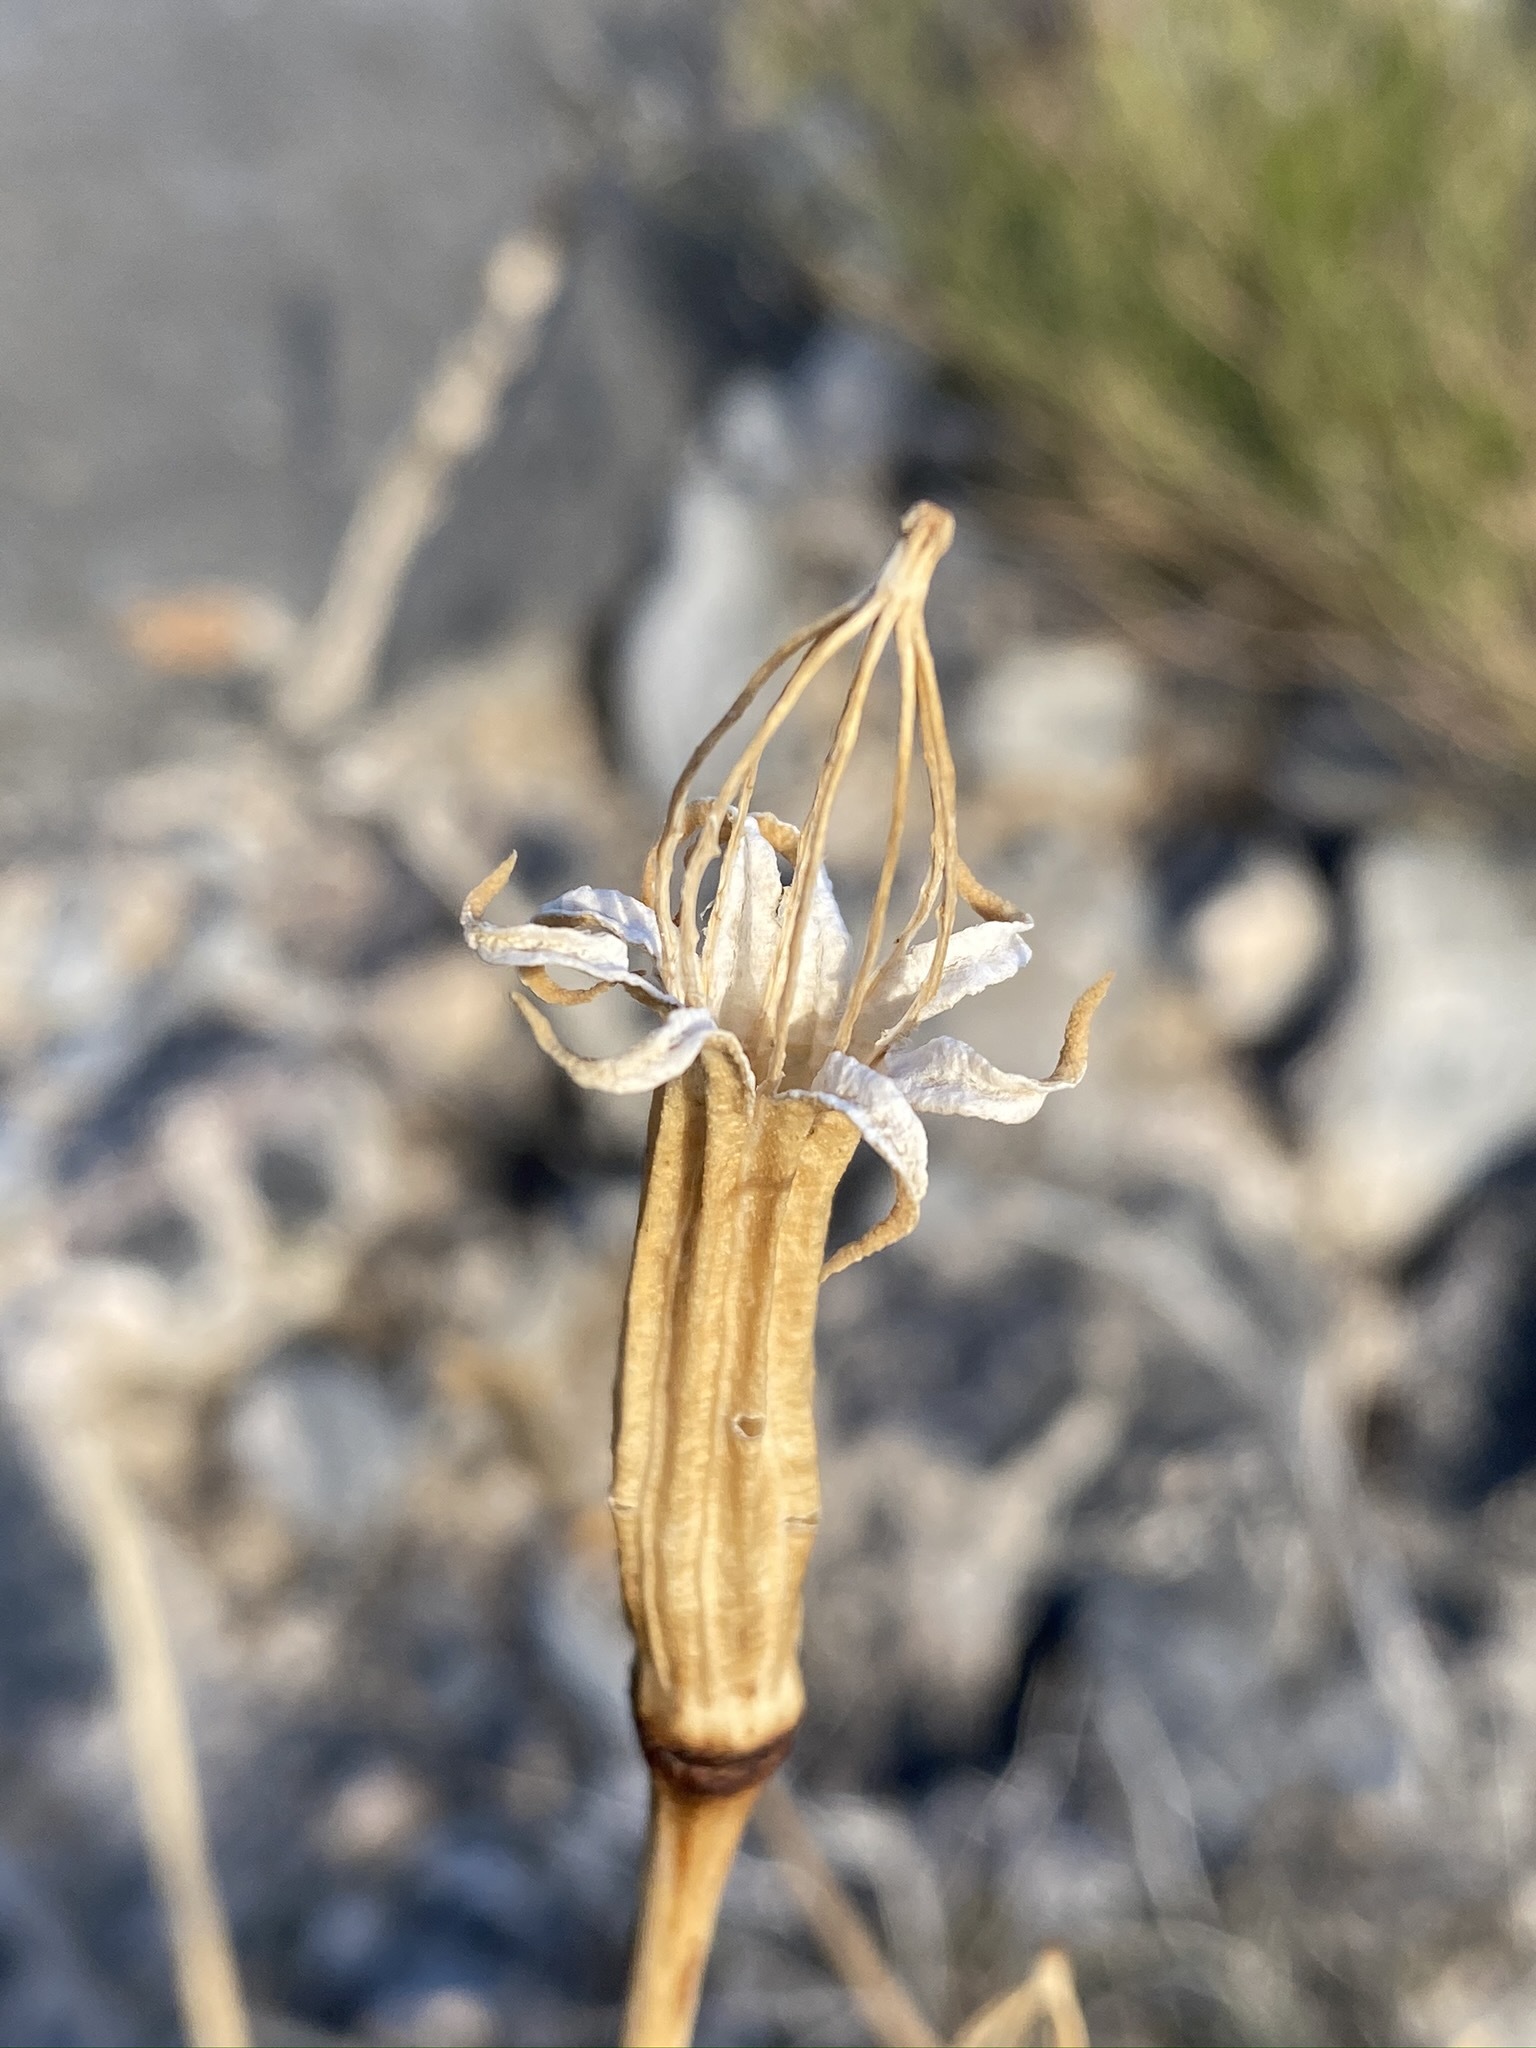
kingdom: Plantae
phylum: Tracheophyta
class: Magnoliopsida
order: Ranunculales
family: Papaveraceae
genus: Arctomecon
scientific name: Arctomecon merriamii
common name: White bear-poppy
